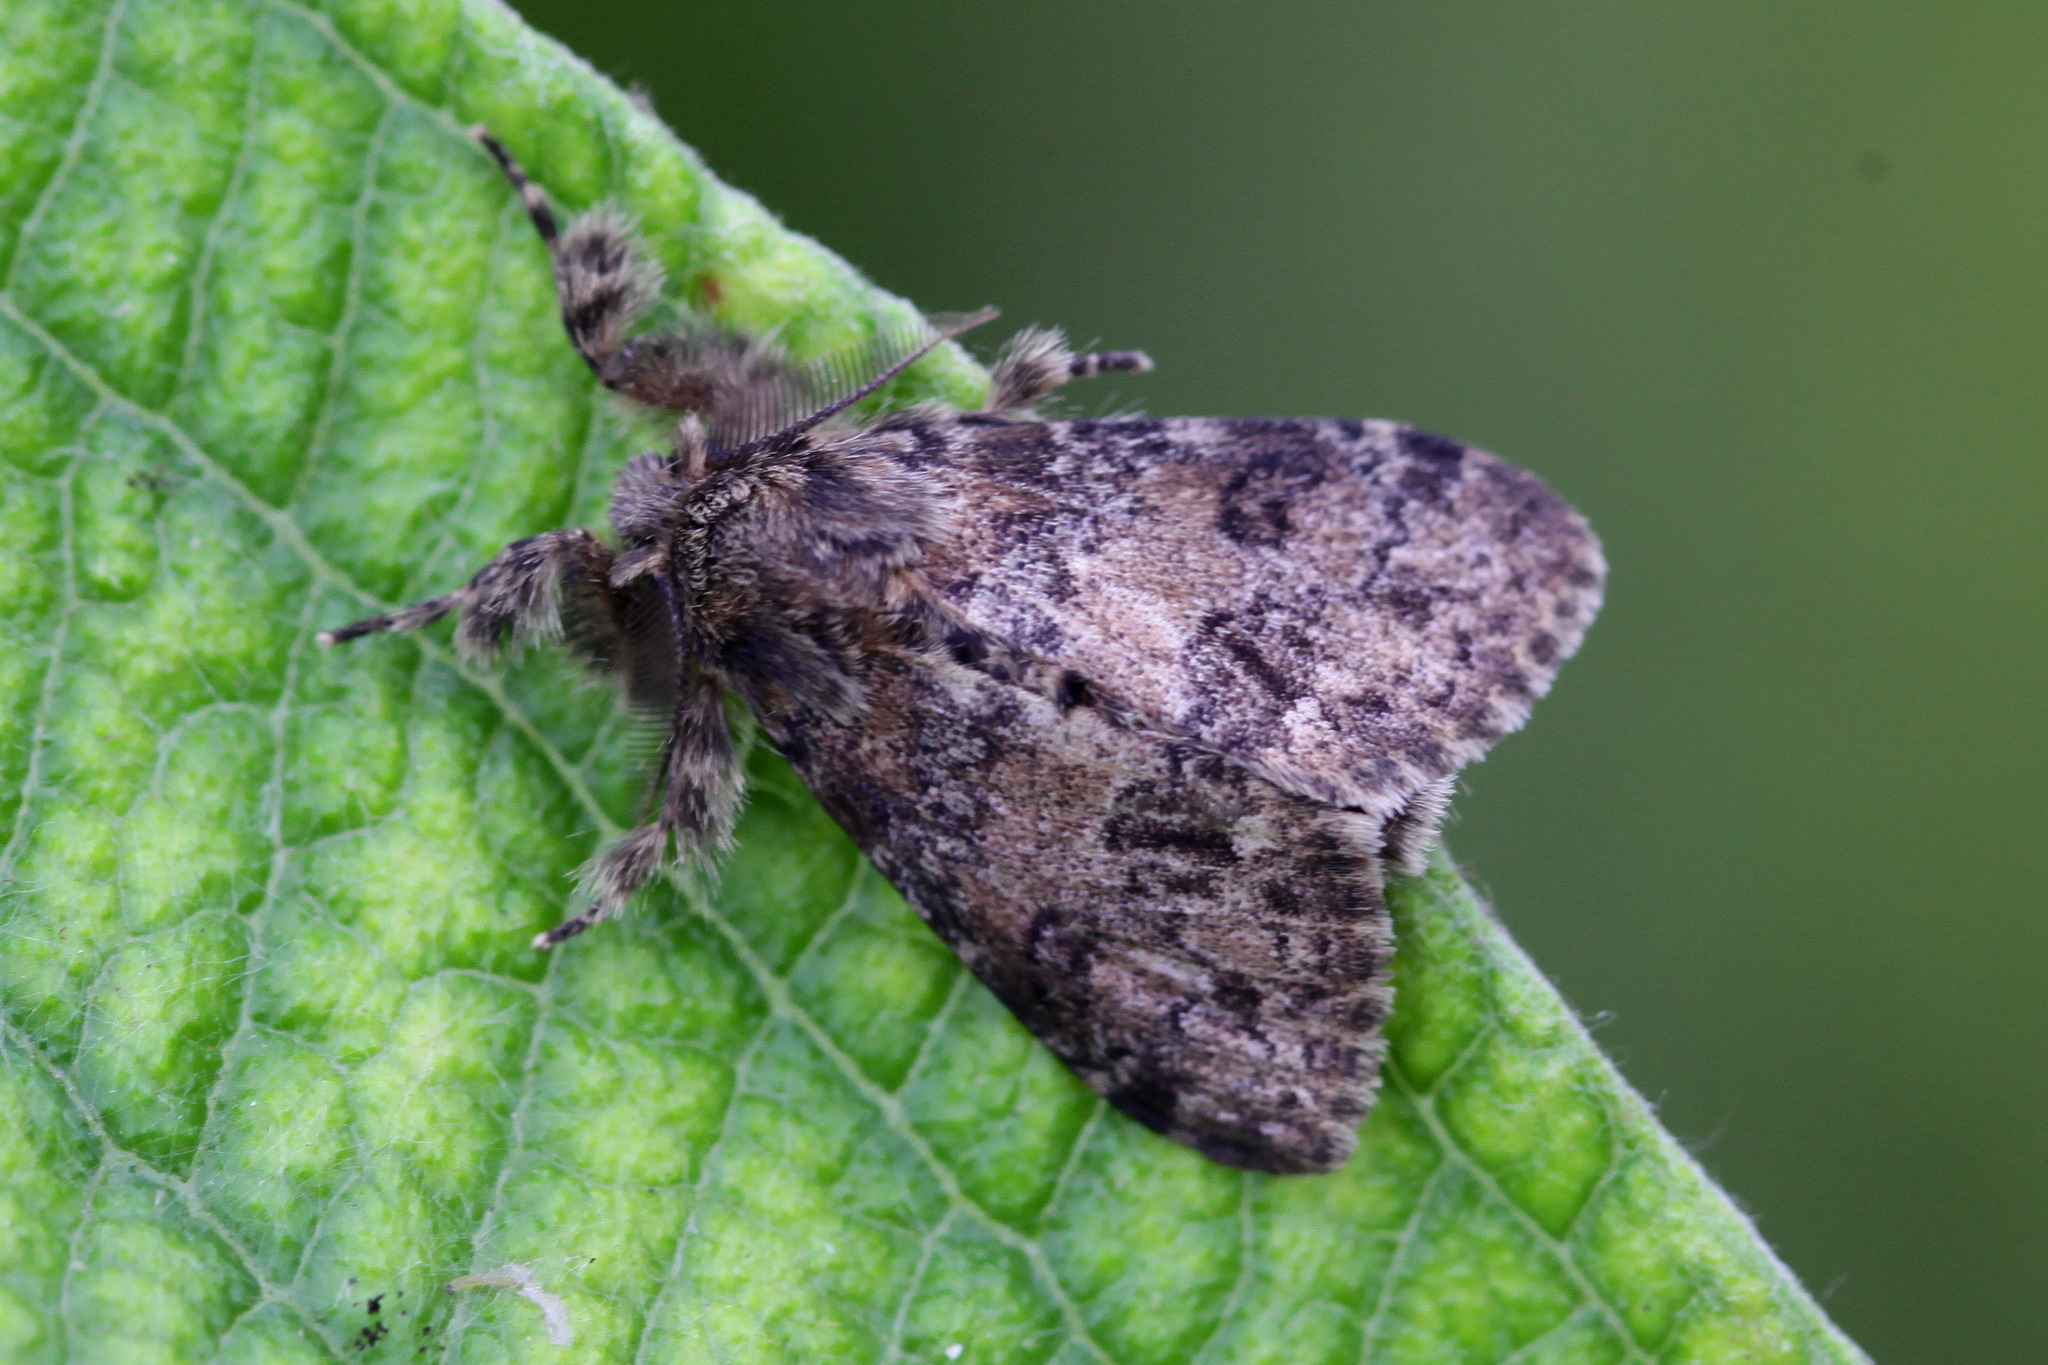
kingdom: Animalia
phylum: Arthropoda
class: Insecta
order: Lepidoptera
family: Erebidae
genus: Dasychira
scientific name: Dasychira extorta
